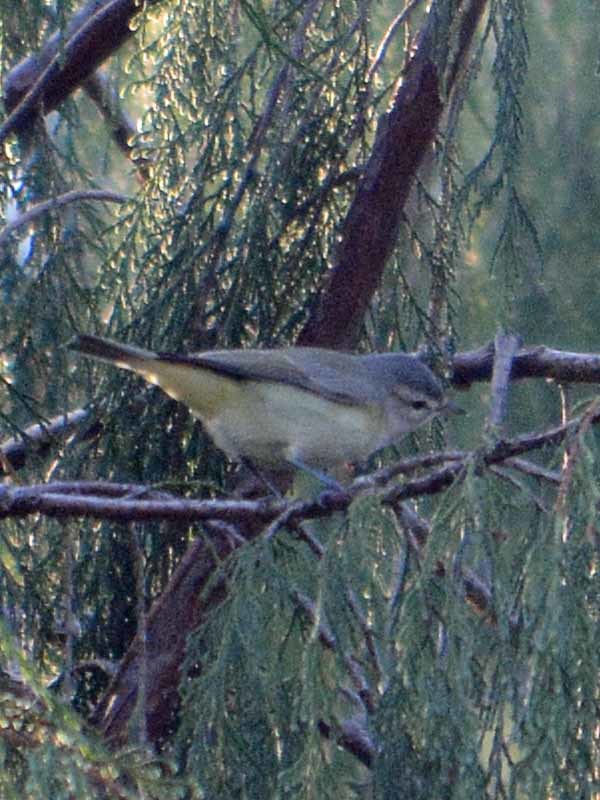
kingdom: Animalia
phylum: Chordata
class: Aves
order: Passeriformes
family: Vireonidae
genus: Vireo
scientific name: Vireo gilvus
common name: Warbling vireo
